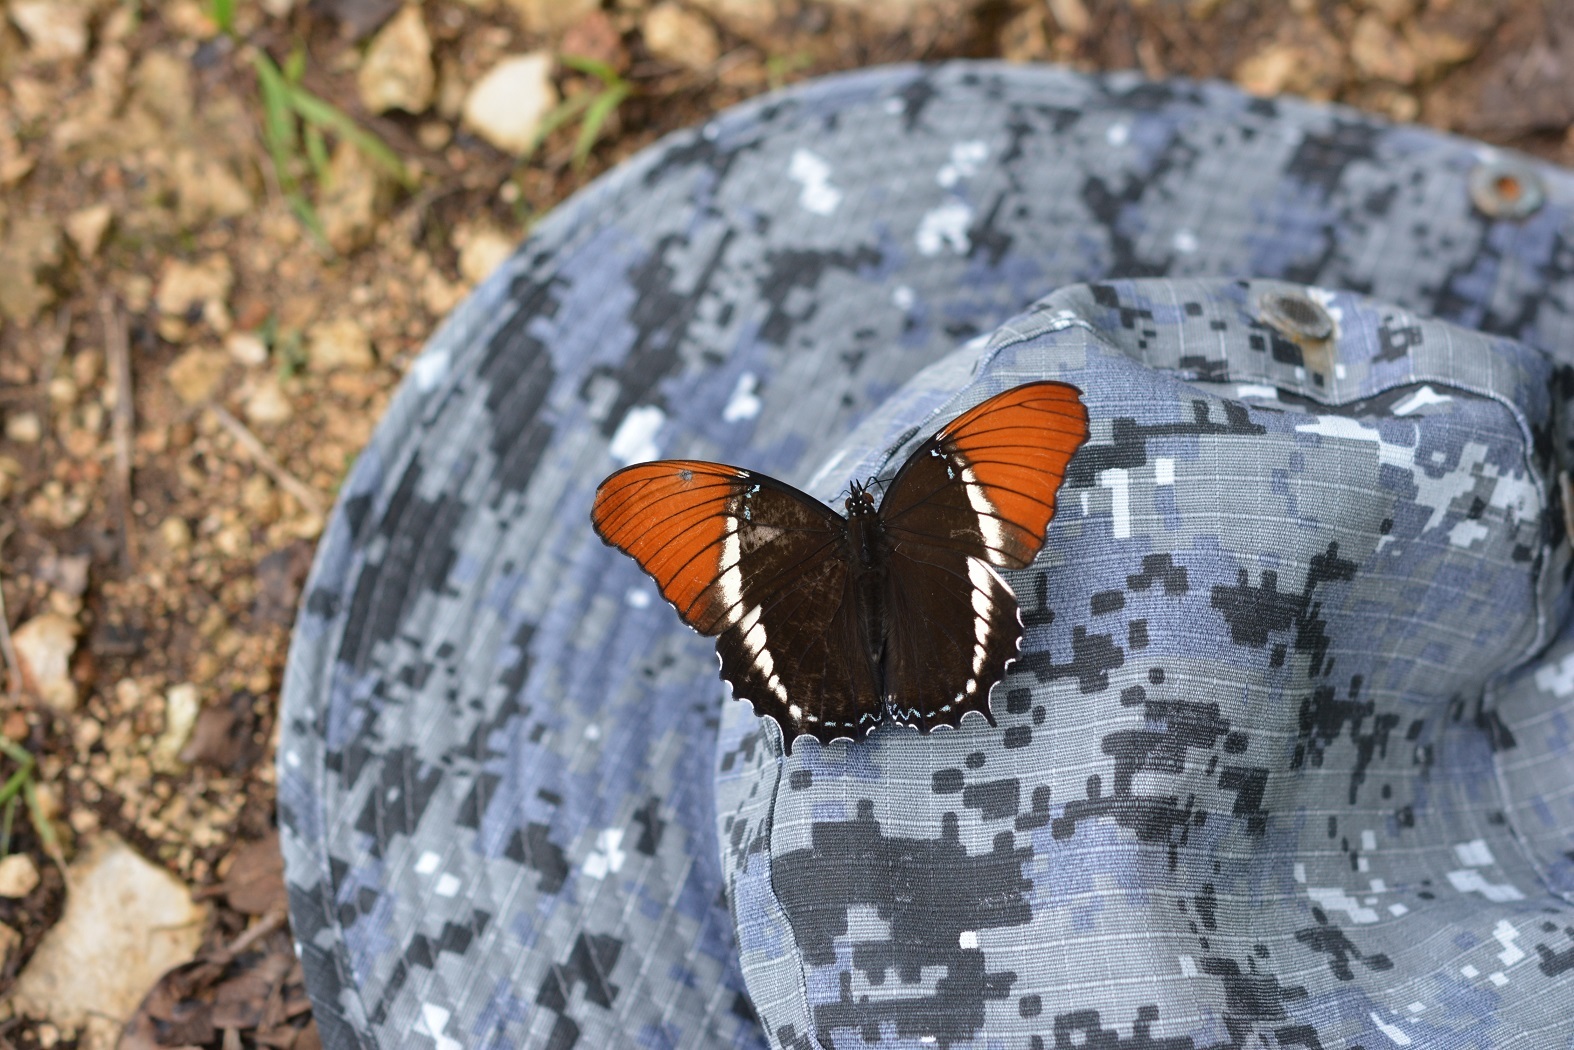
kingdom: Animalia
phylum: Arthropoda
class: Insecta
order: Lepidoptera
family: Nymphalidae
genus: Siproeta
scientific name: Siproeta epaphus
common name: Rusty-tipped page
